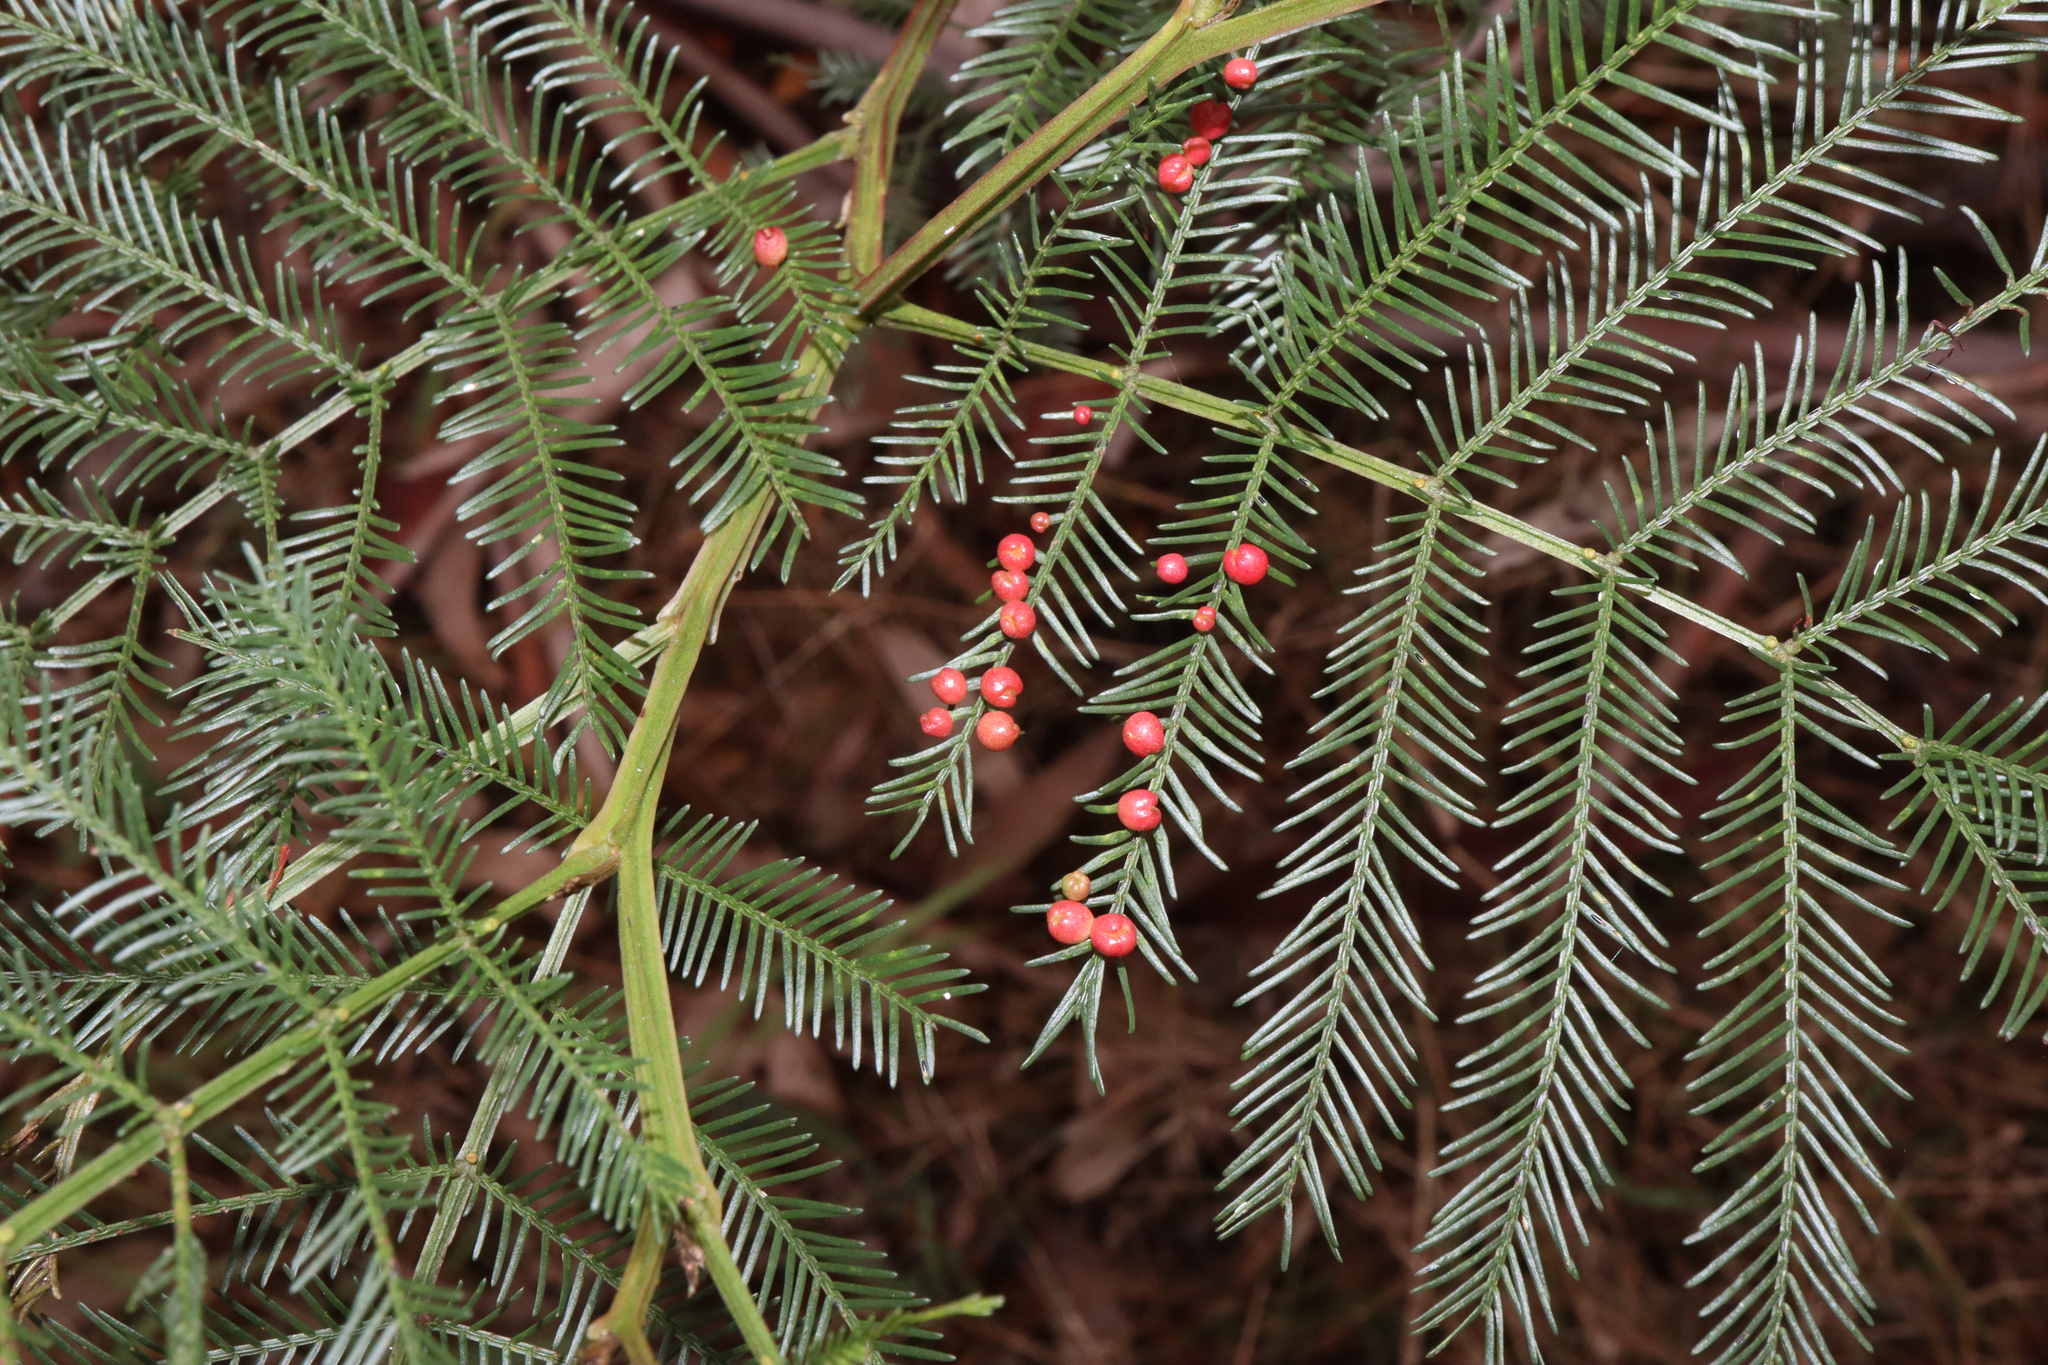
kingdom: Animalia
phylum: Arthropoda
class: Insecta
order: Diptera
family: Cecidomyiidae
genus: Austroacacidiplosis
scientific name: Austroacacidiplosis botrycephalae
